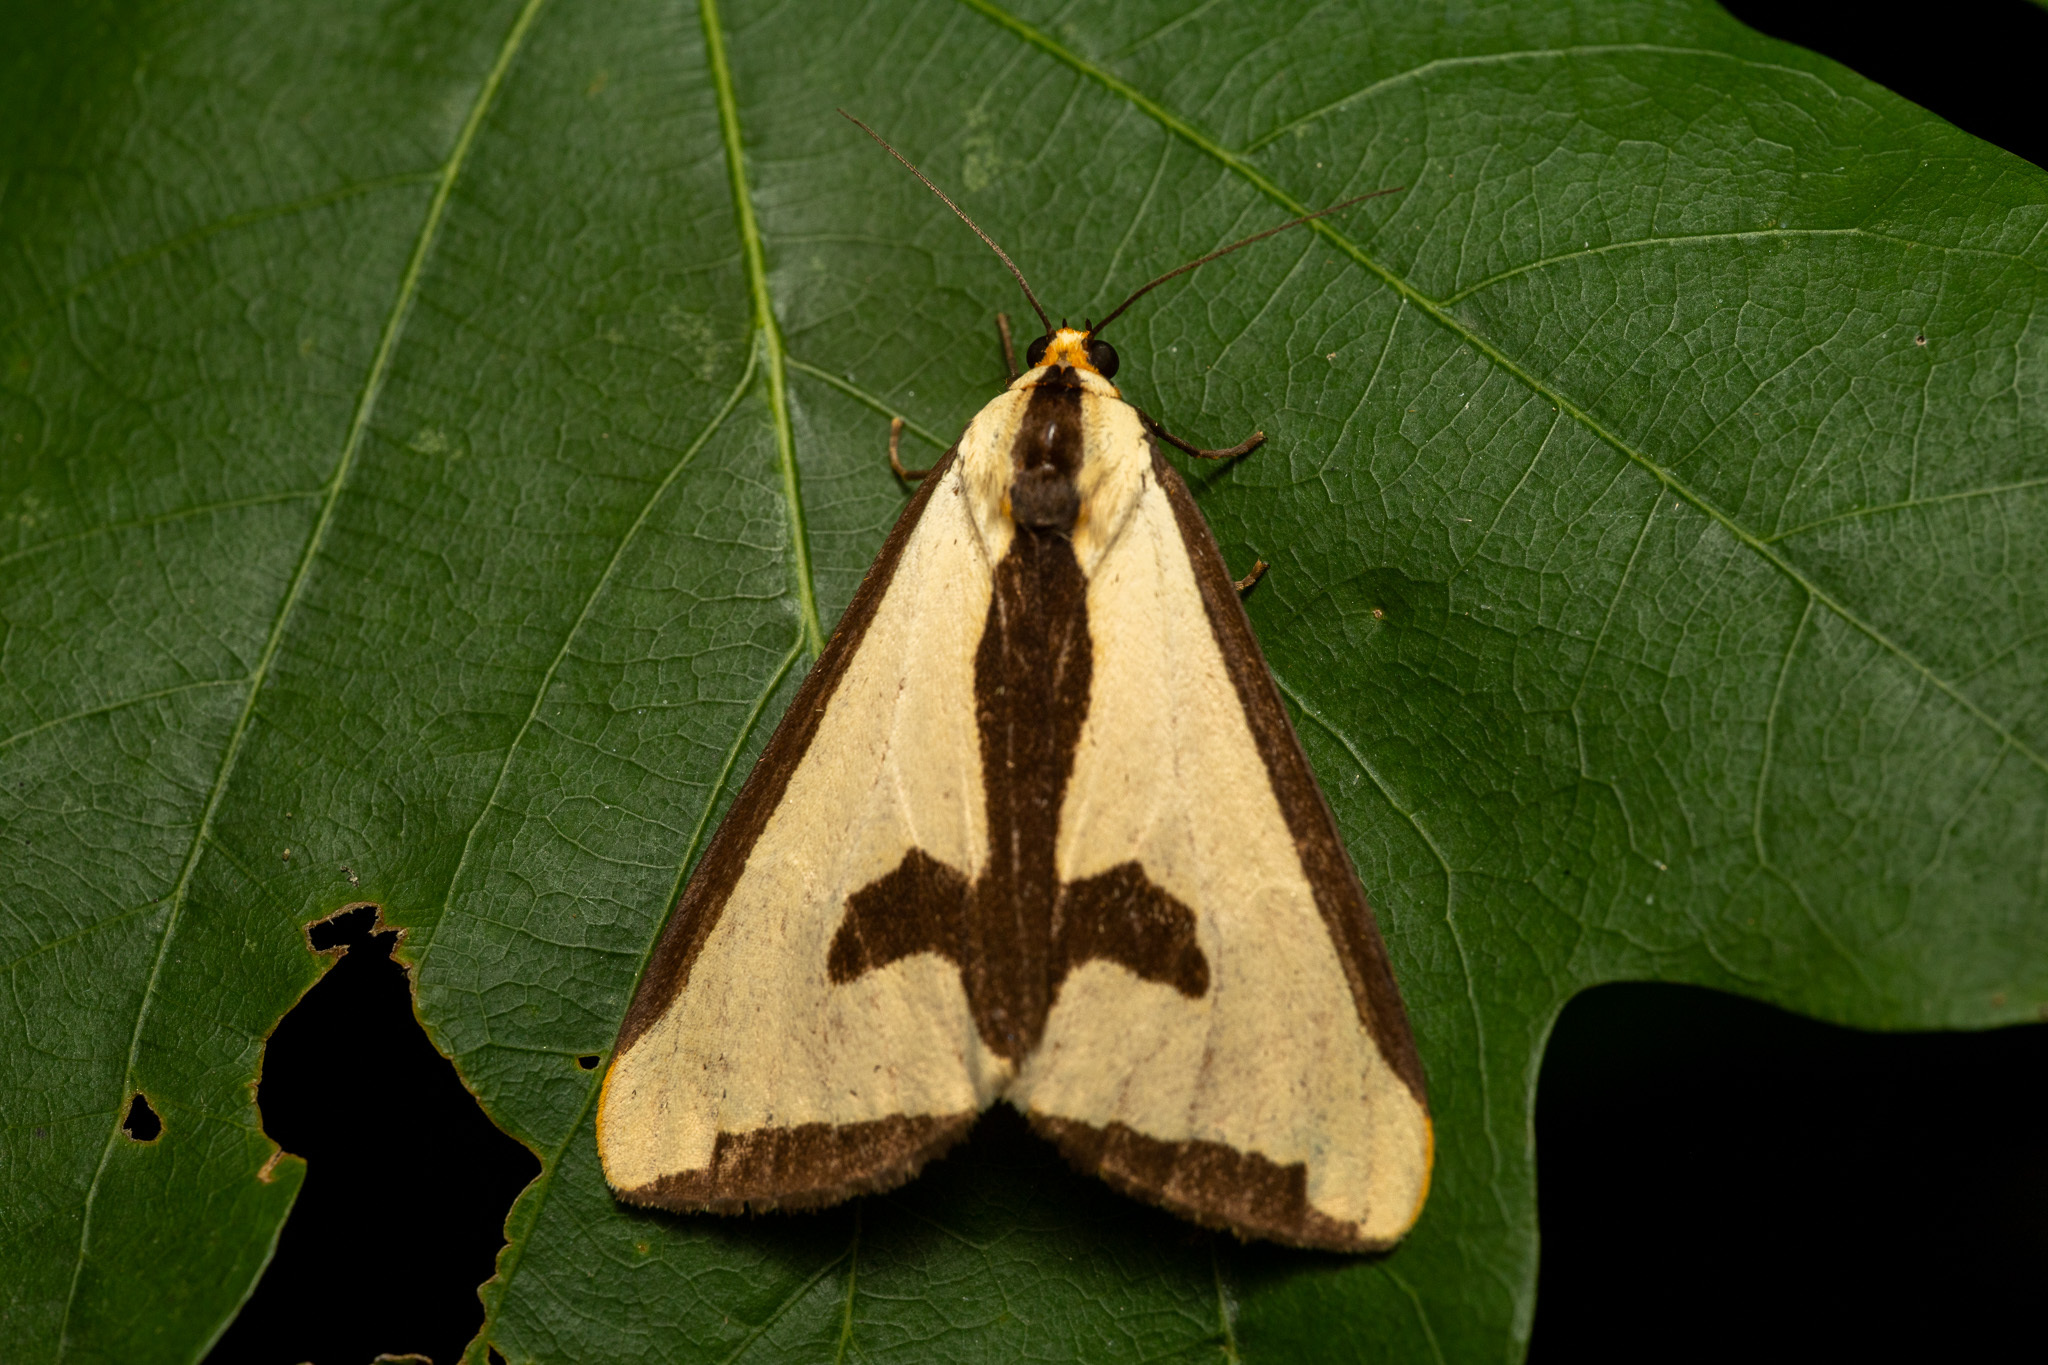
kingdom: Animalia
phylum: Arthropoda
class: Insecta
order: Lepidoptera
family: Erebidae
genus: Haploa
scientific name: Haploa clymene
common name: Clymene moth
